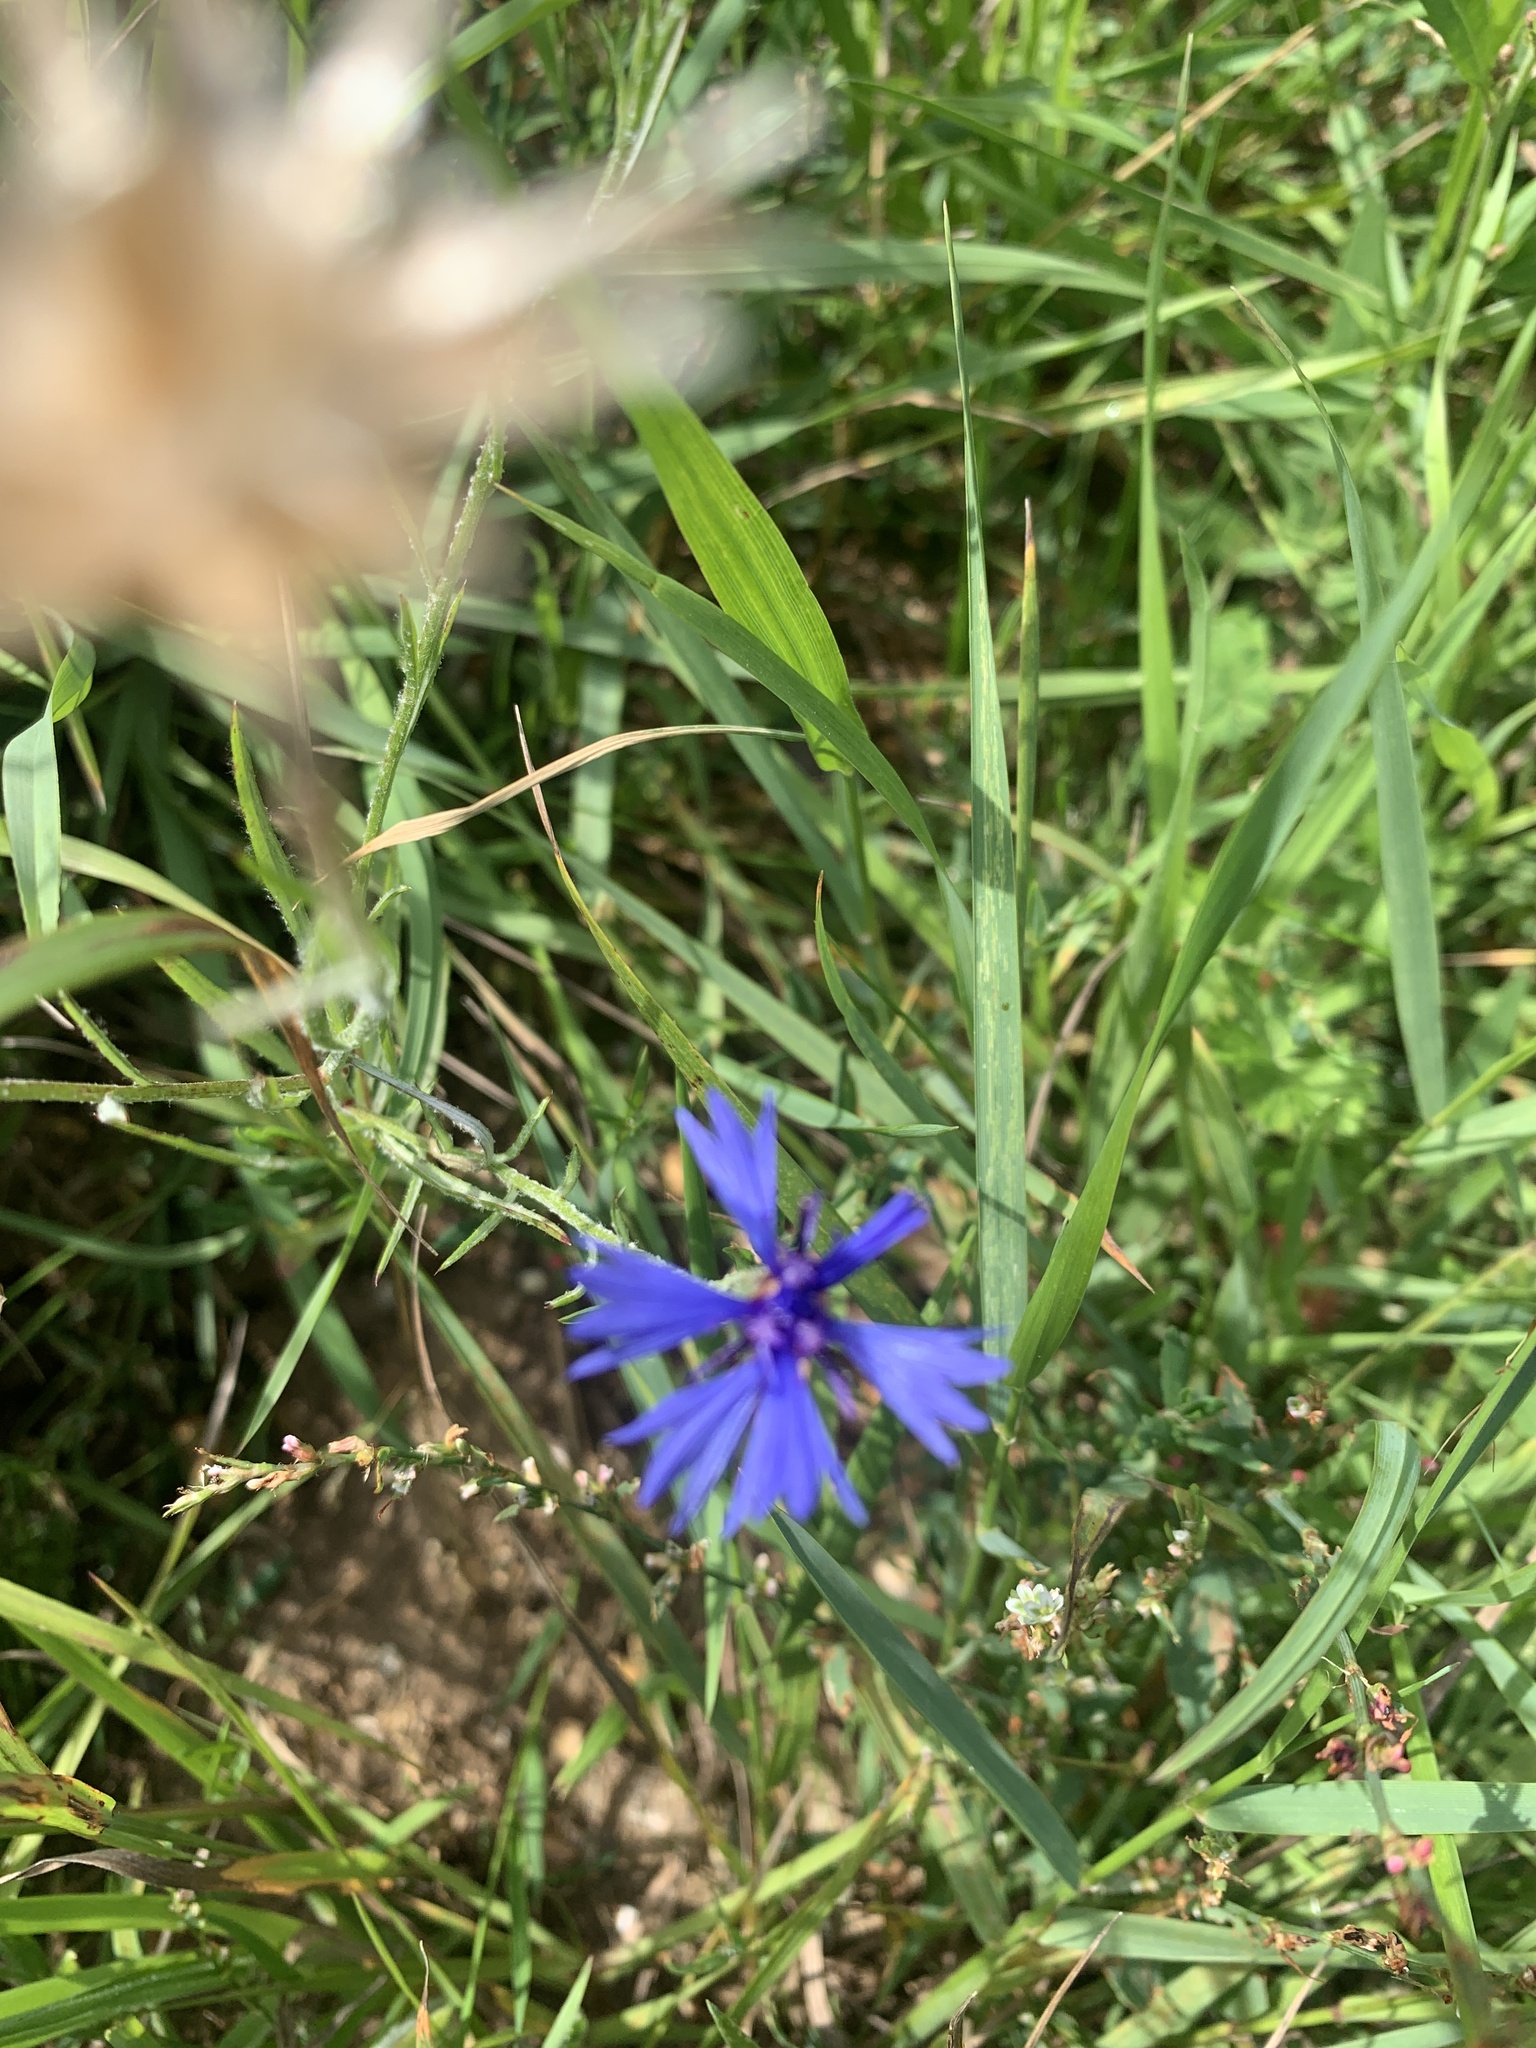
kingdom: Plantae
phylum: Tracheophyta
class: Magnoliopsida
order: Asterales
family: Asteraceae
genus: Centaurea
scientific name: Centaurea cyanus
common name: Cornflower
